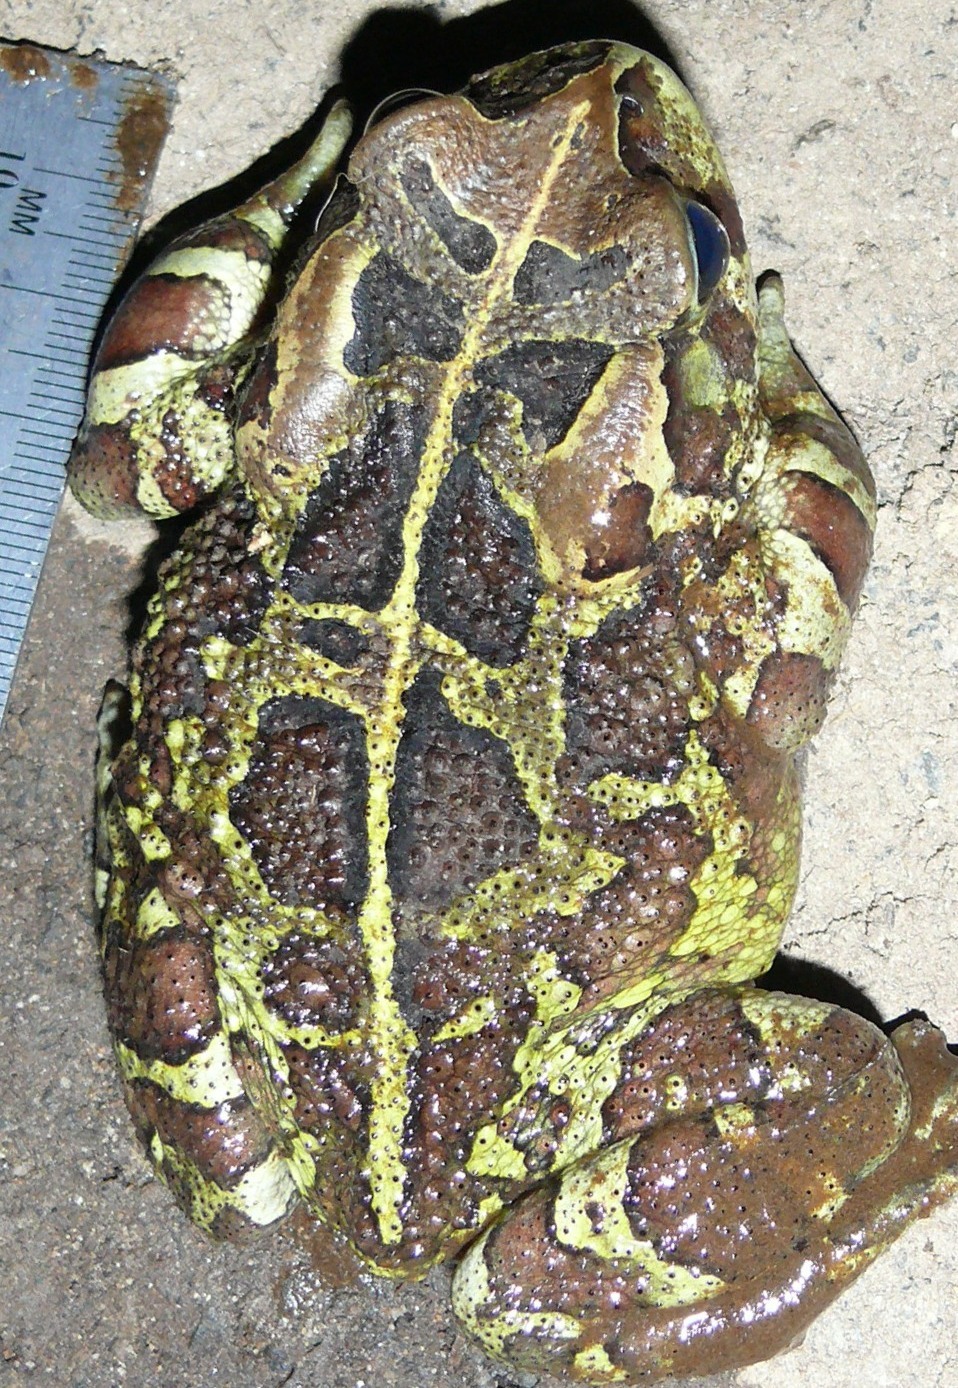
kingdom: Animalia
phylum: Chordata
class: Amphibia
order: Anura
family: Bufonidae
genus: Sclerophrys
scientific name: Sclerophrys pantherina
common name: Panther toad
